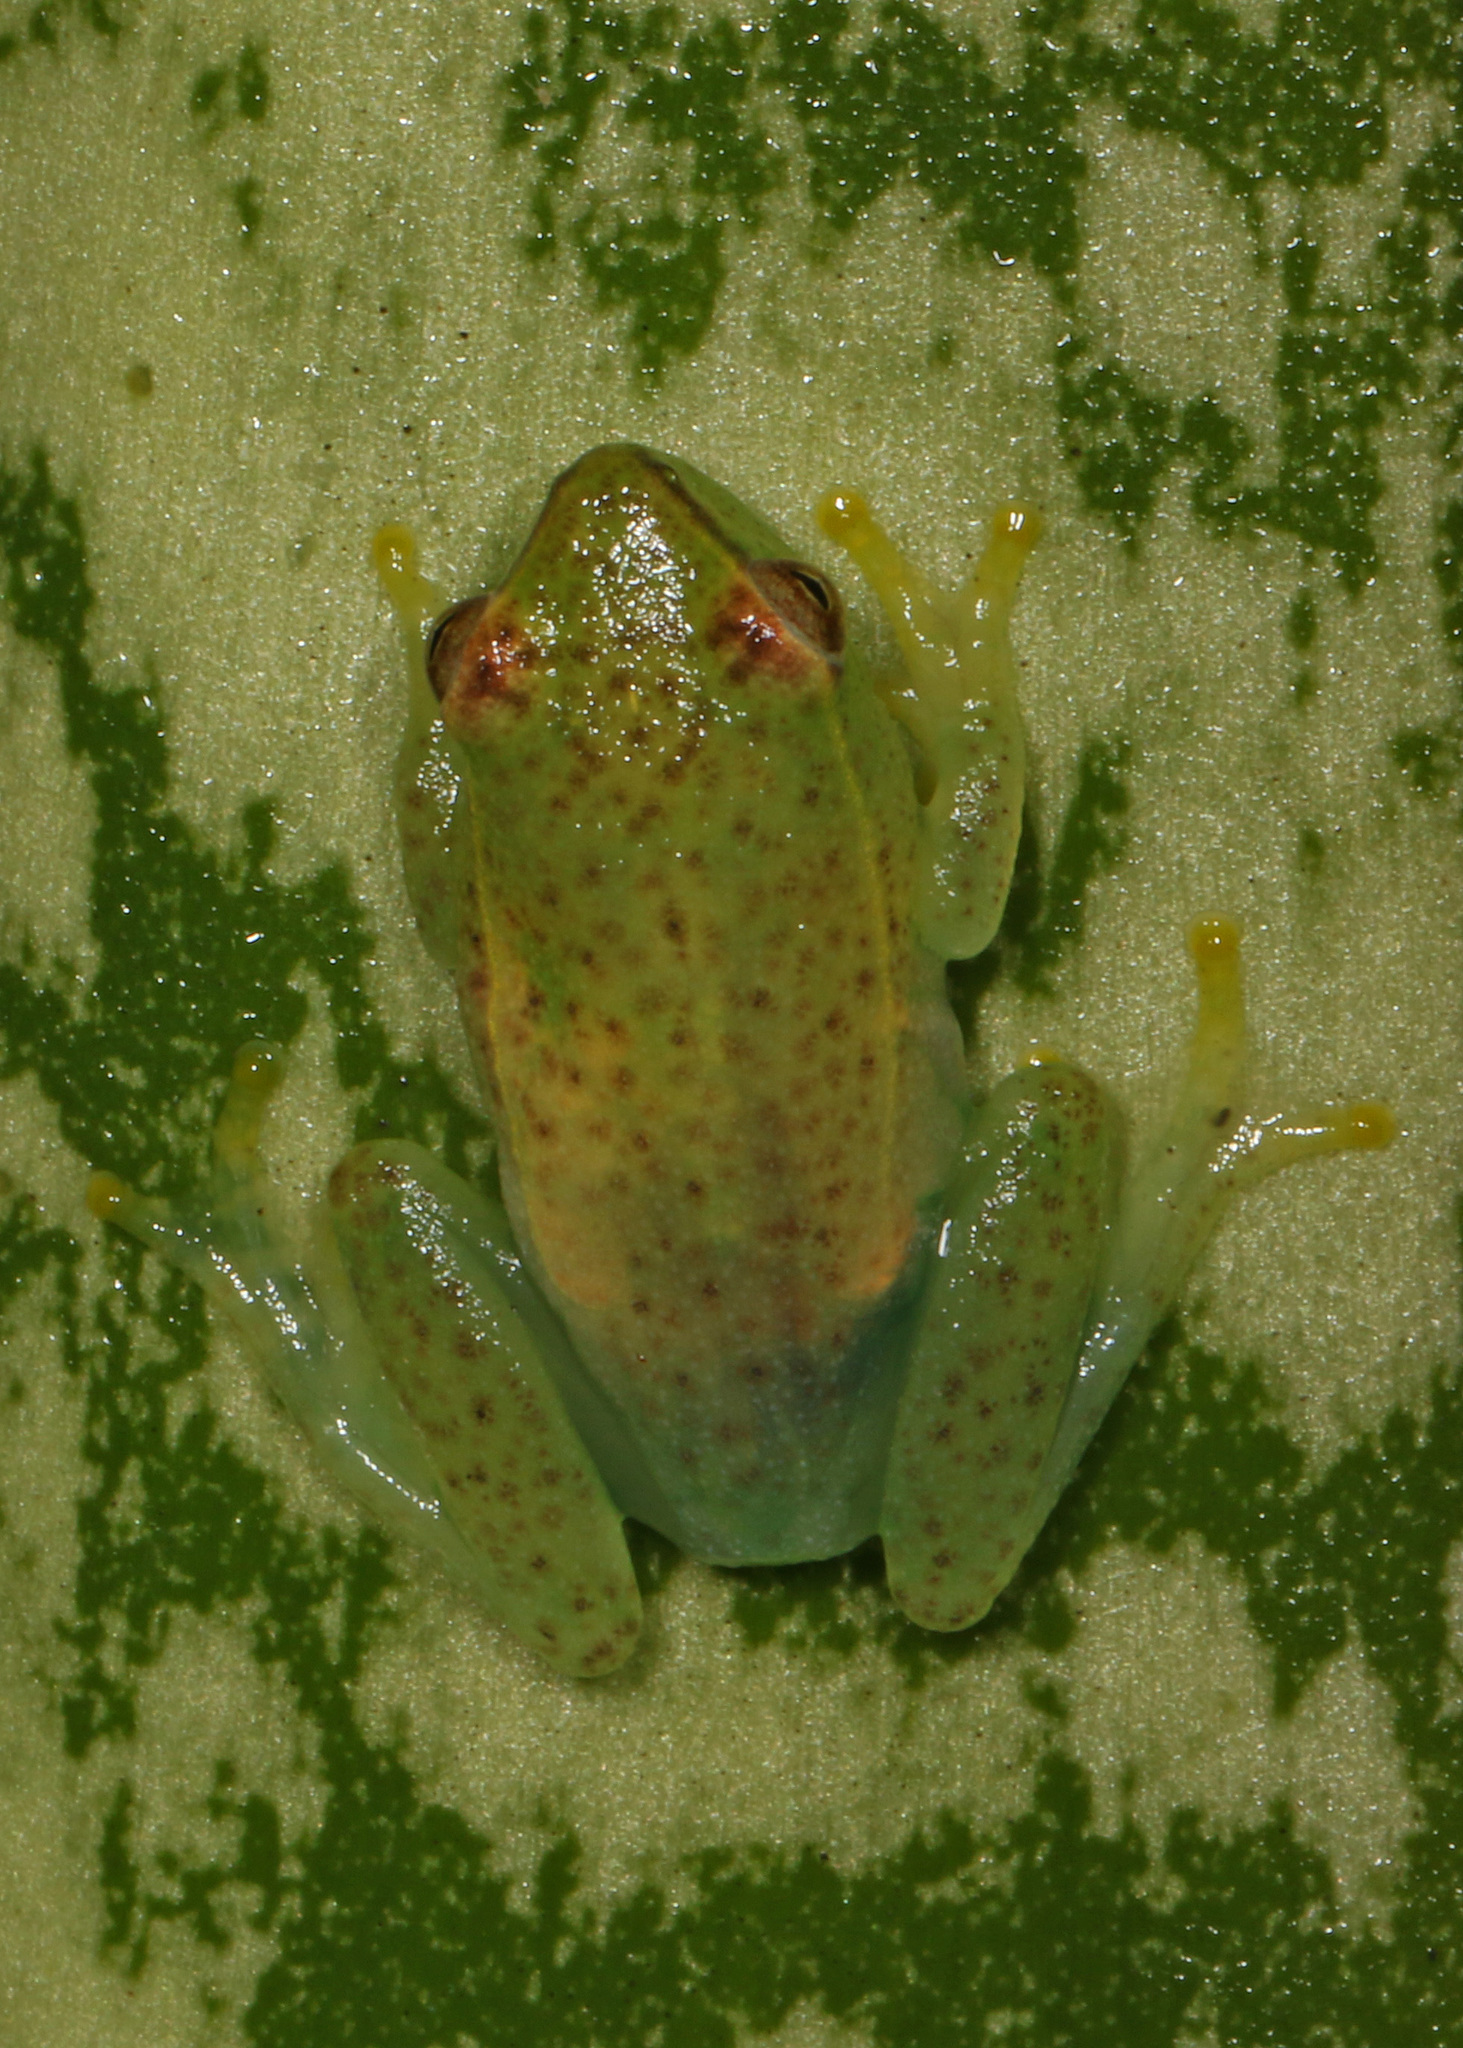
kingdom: Animalia
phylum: Chordata
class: Amphibia
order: Anura
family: Hyperoliidae
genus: Hyperolius
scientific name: Hyperolius pusillus
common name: Water lily reed frog
